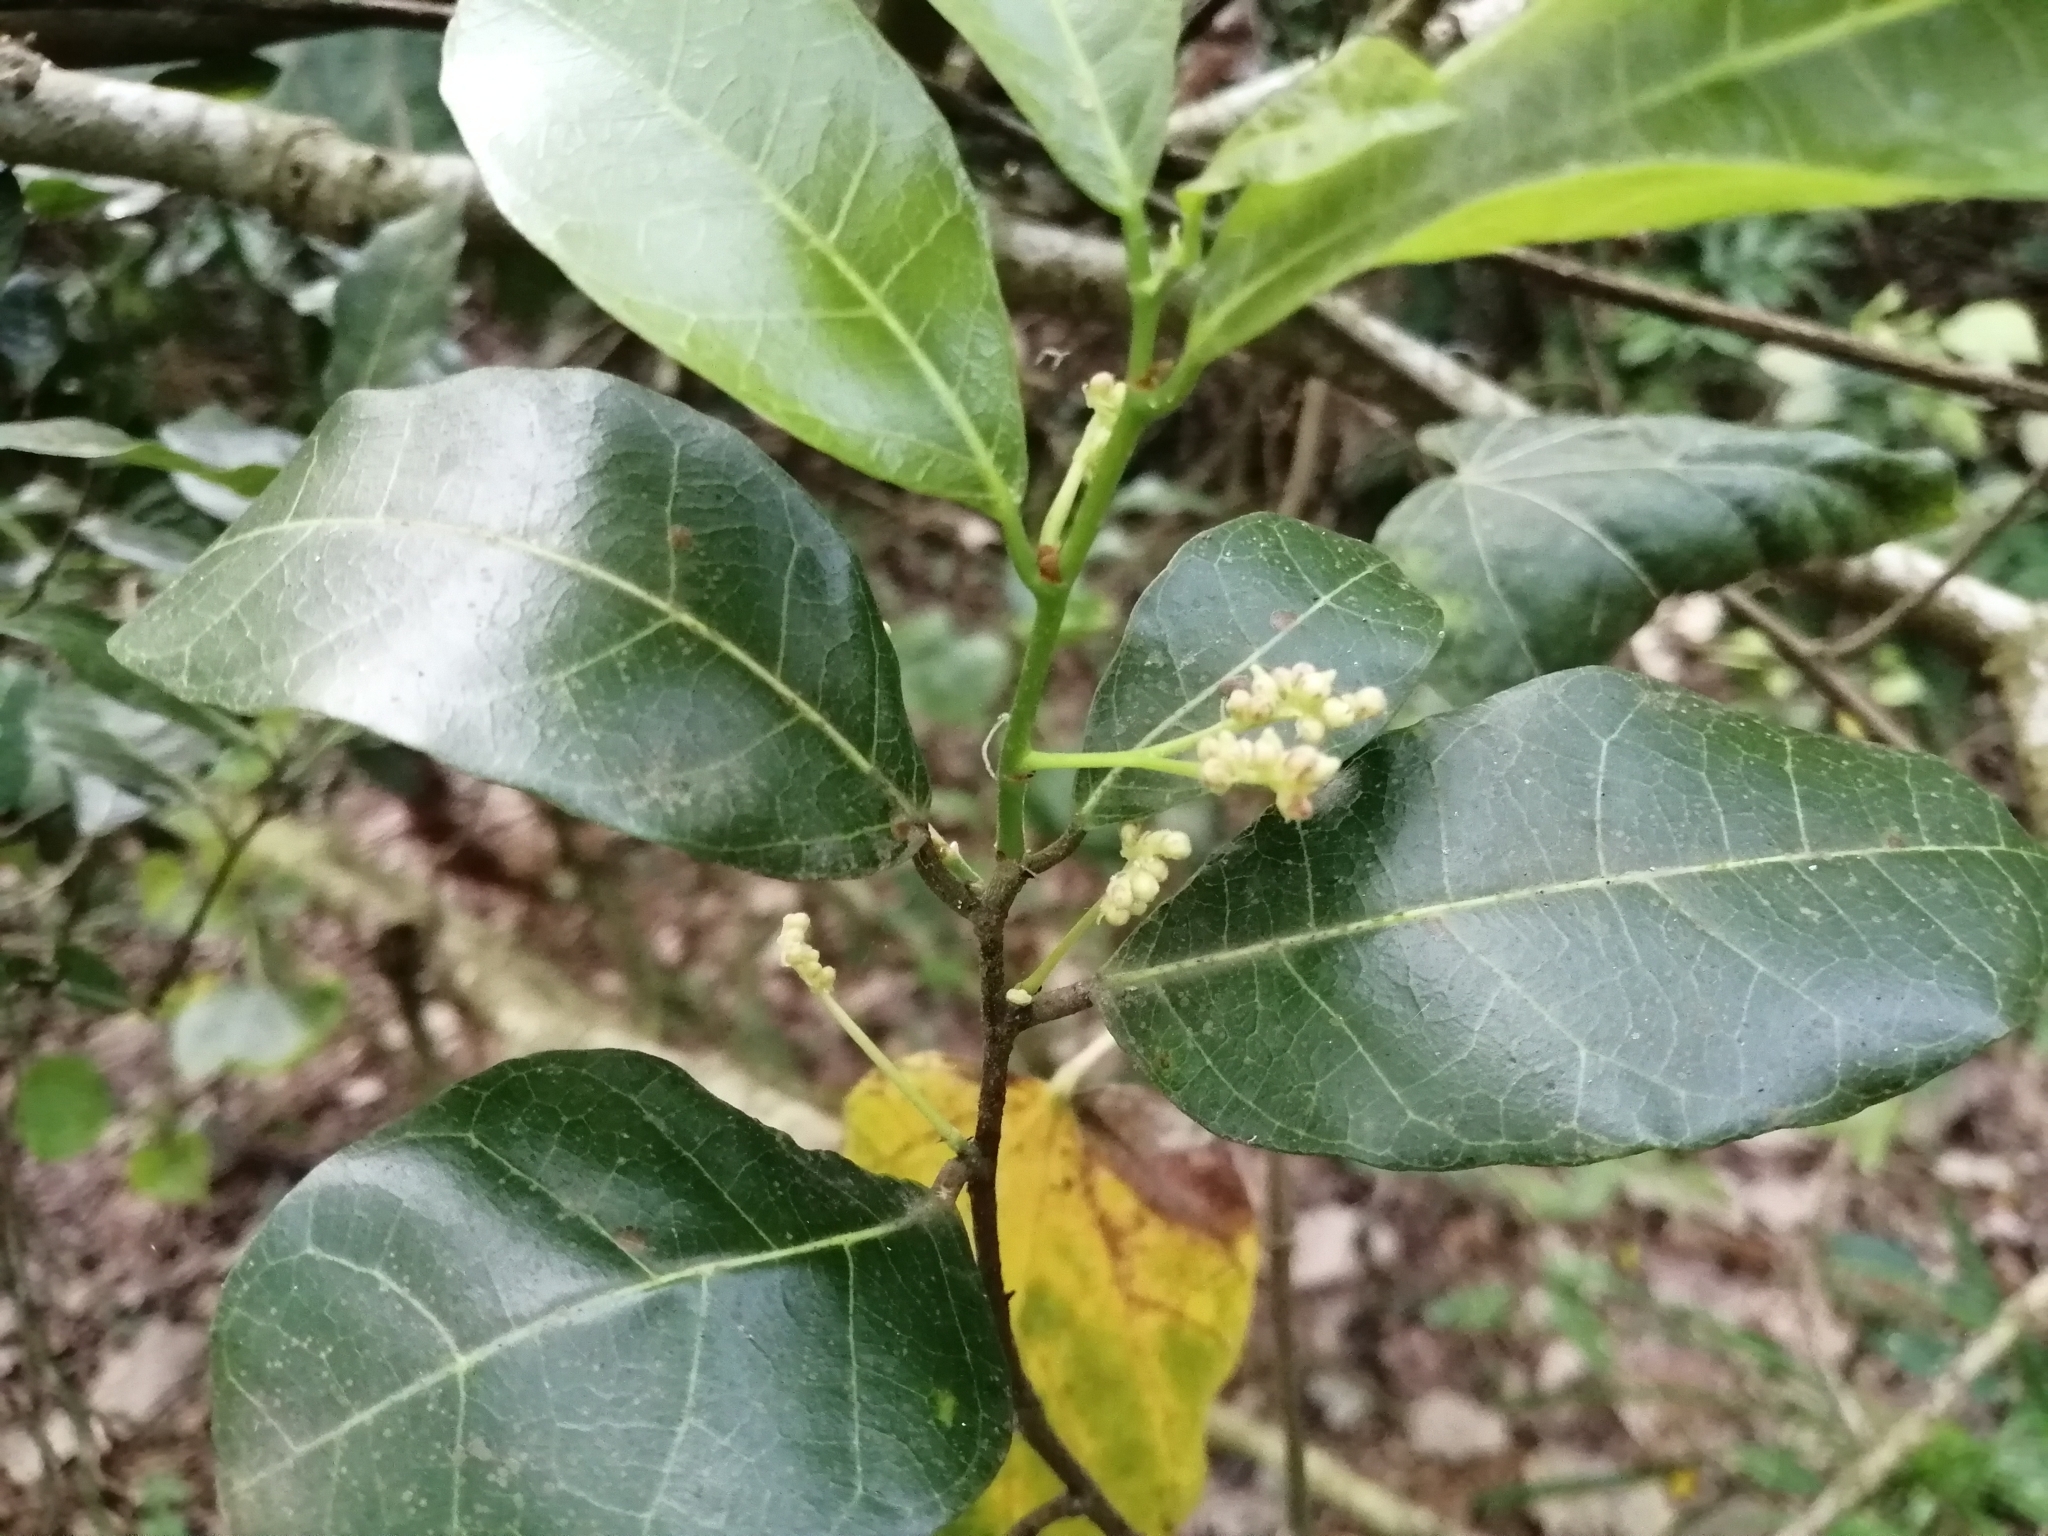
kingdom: Plantae
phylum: Tracheophyta
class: Magnoliopsida
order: Rosales
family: Moraceae
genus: Malaisia
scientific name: Malaisia scandens
